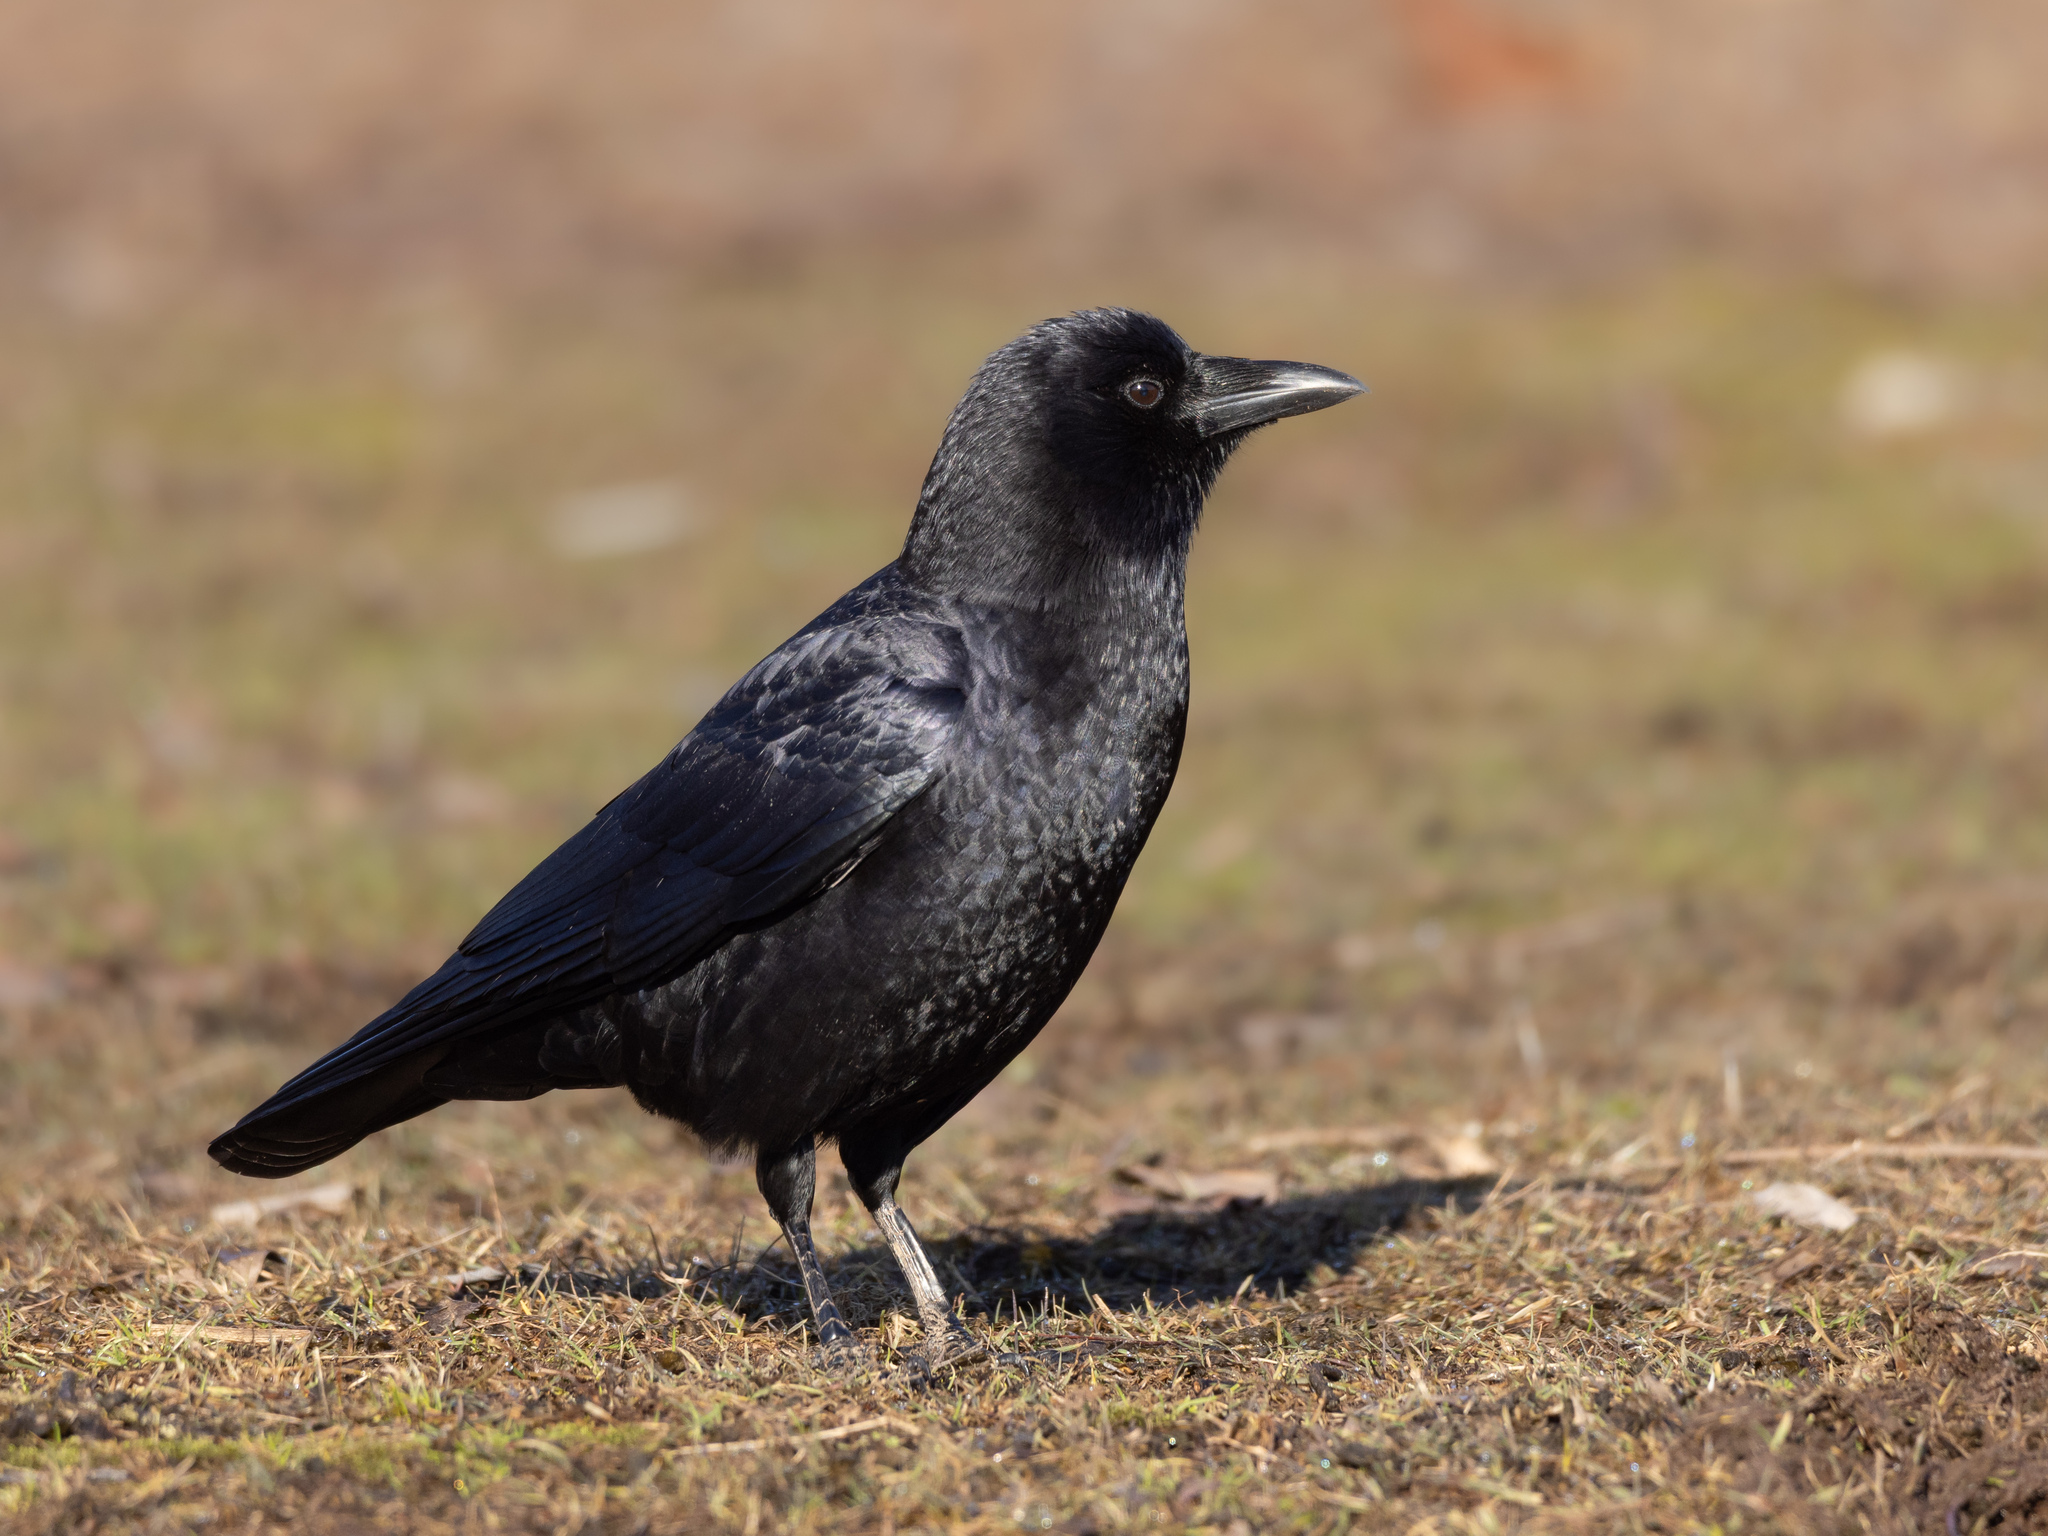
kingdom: Animalia
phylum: Chordata
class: Aves
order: Passeriformes
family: Corvidae
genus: Corvus
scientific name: Corvus brachyrhynchos
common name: American crow
